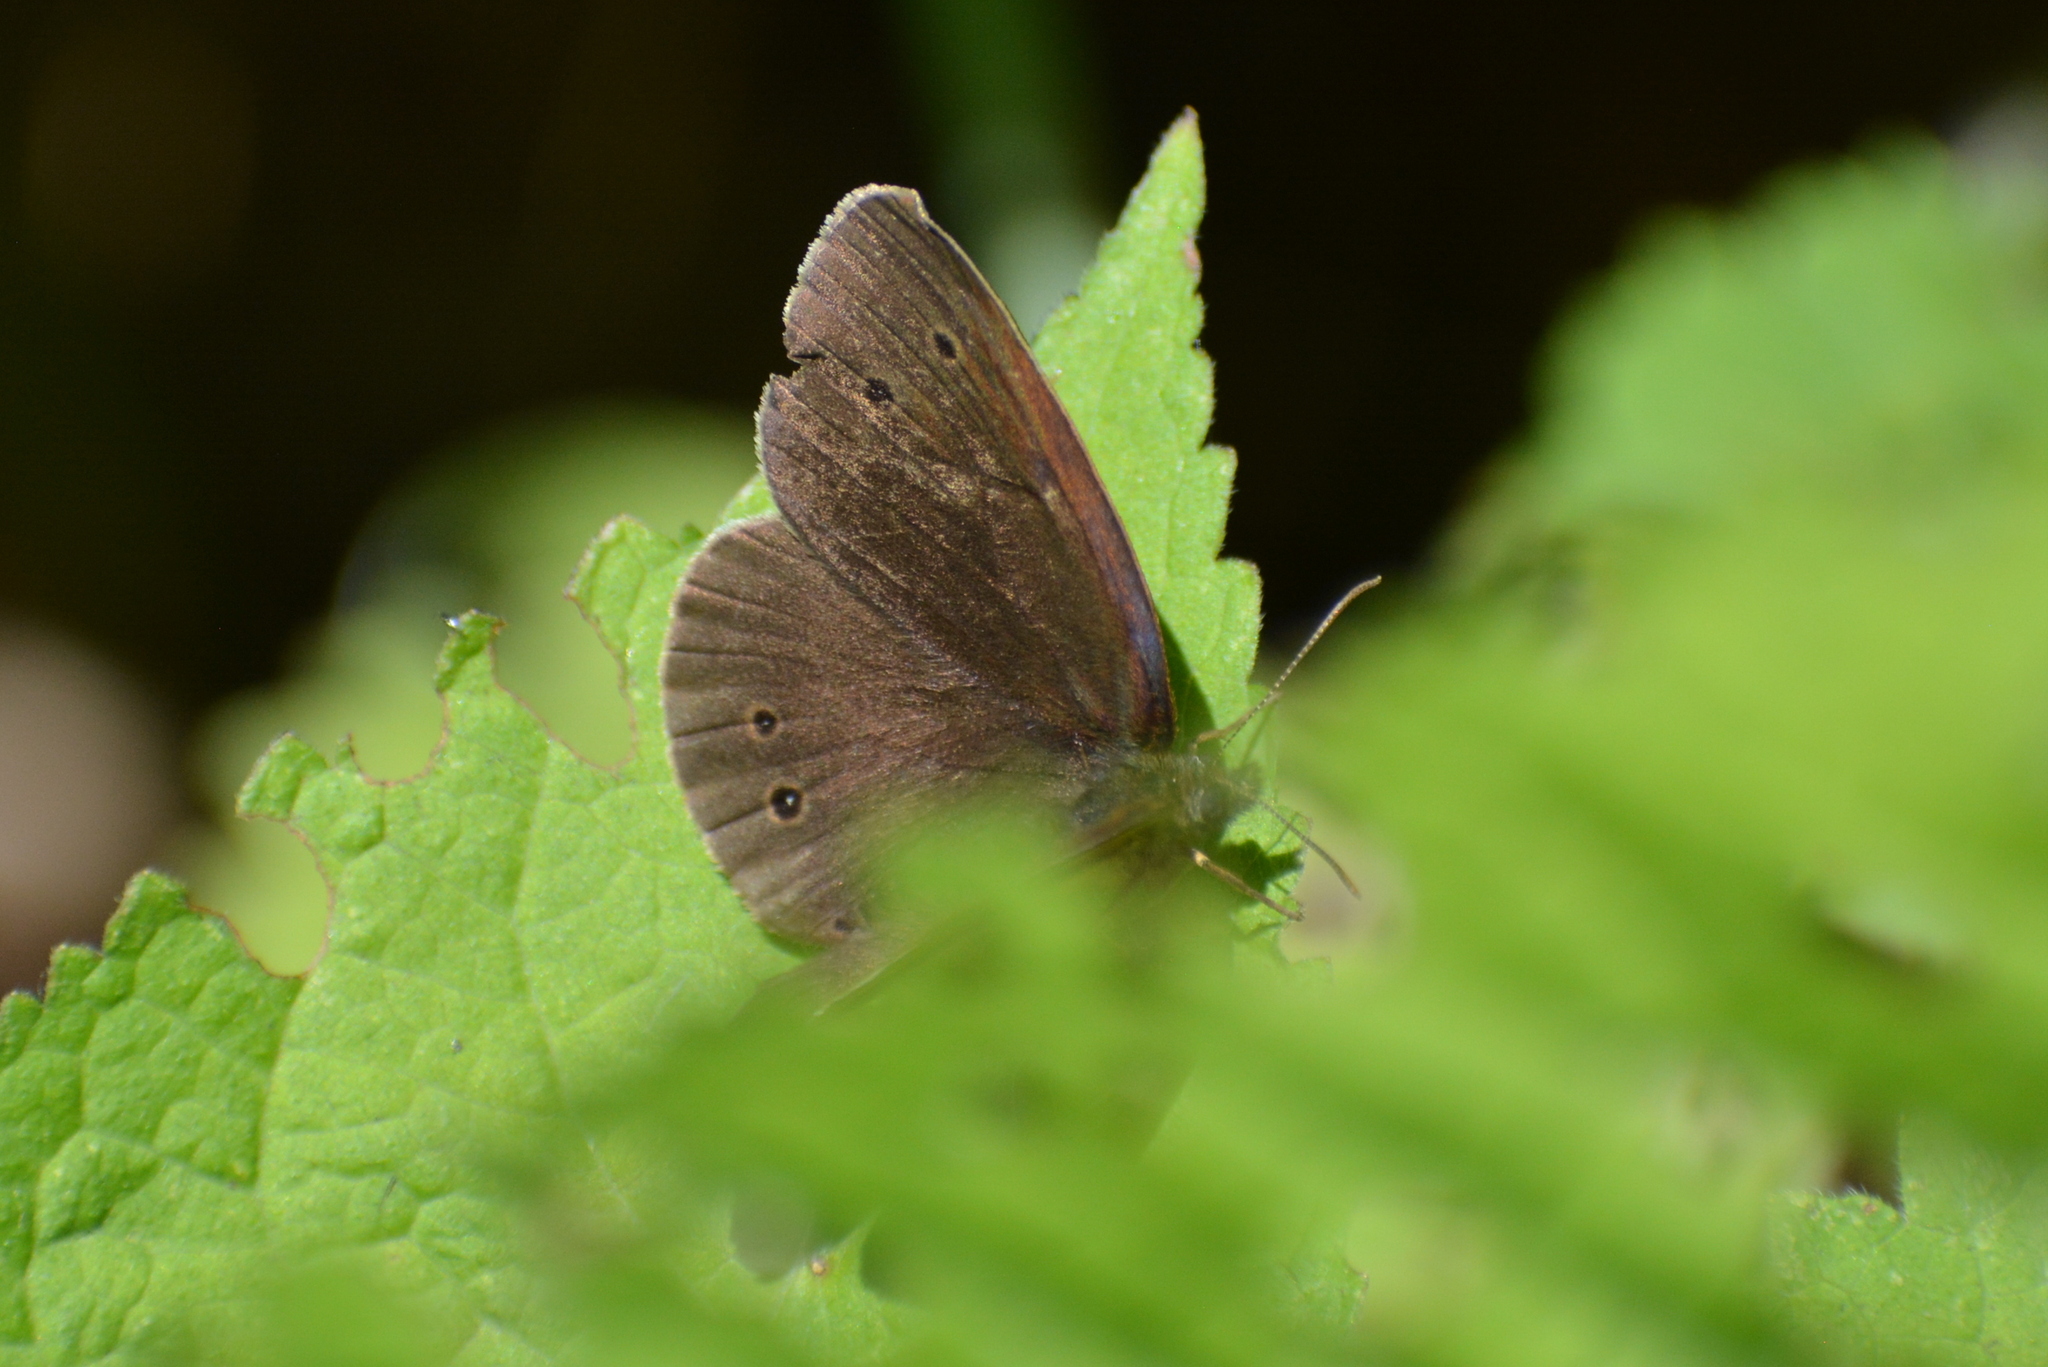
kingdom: Animalia
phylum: Arthropoda
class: Insecta
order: Lepidoptera
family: Nymphalidae
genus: Aphantopus
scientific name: Aphantopus hyperantus
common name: Ringlet
